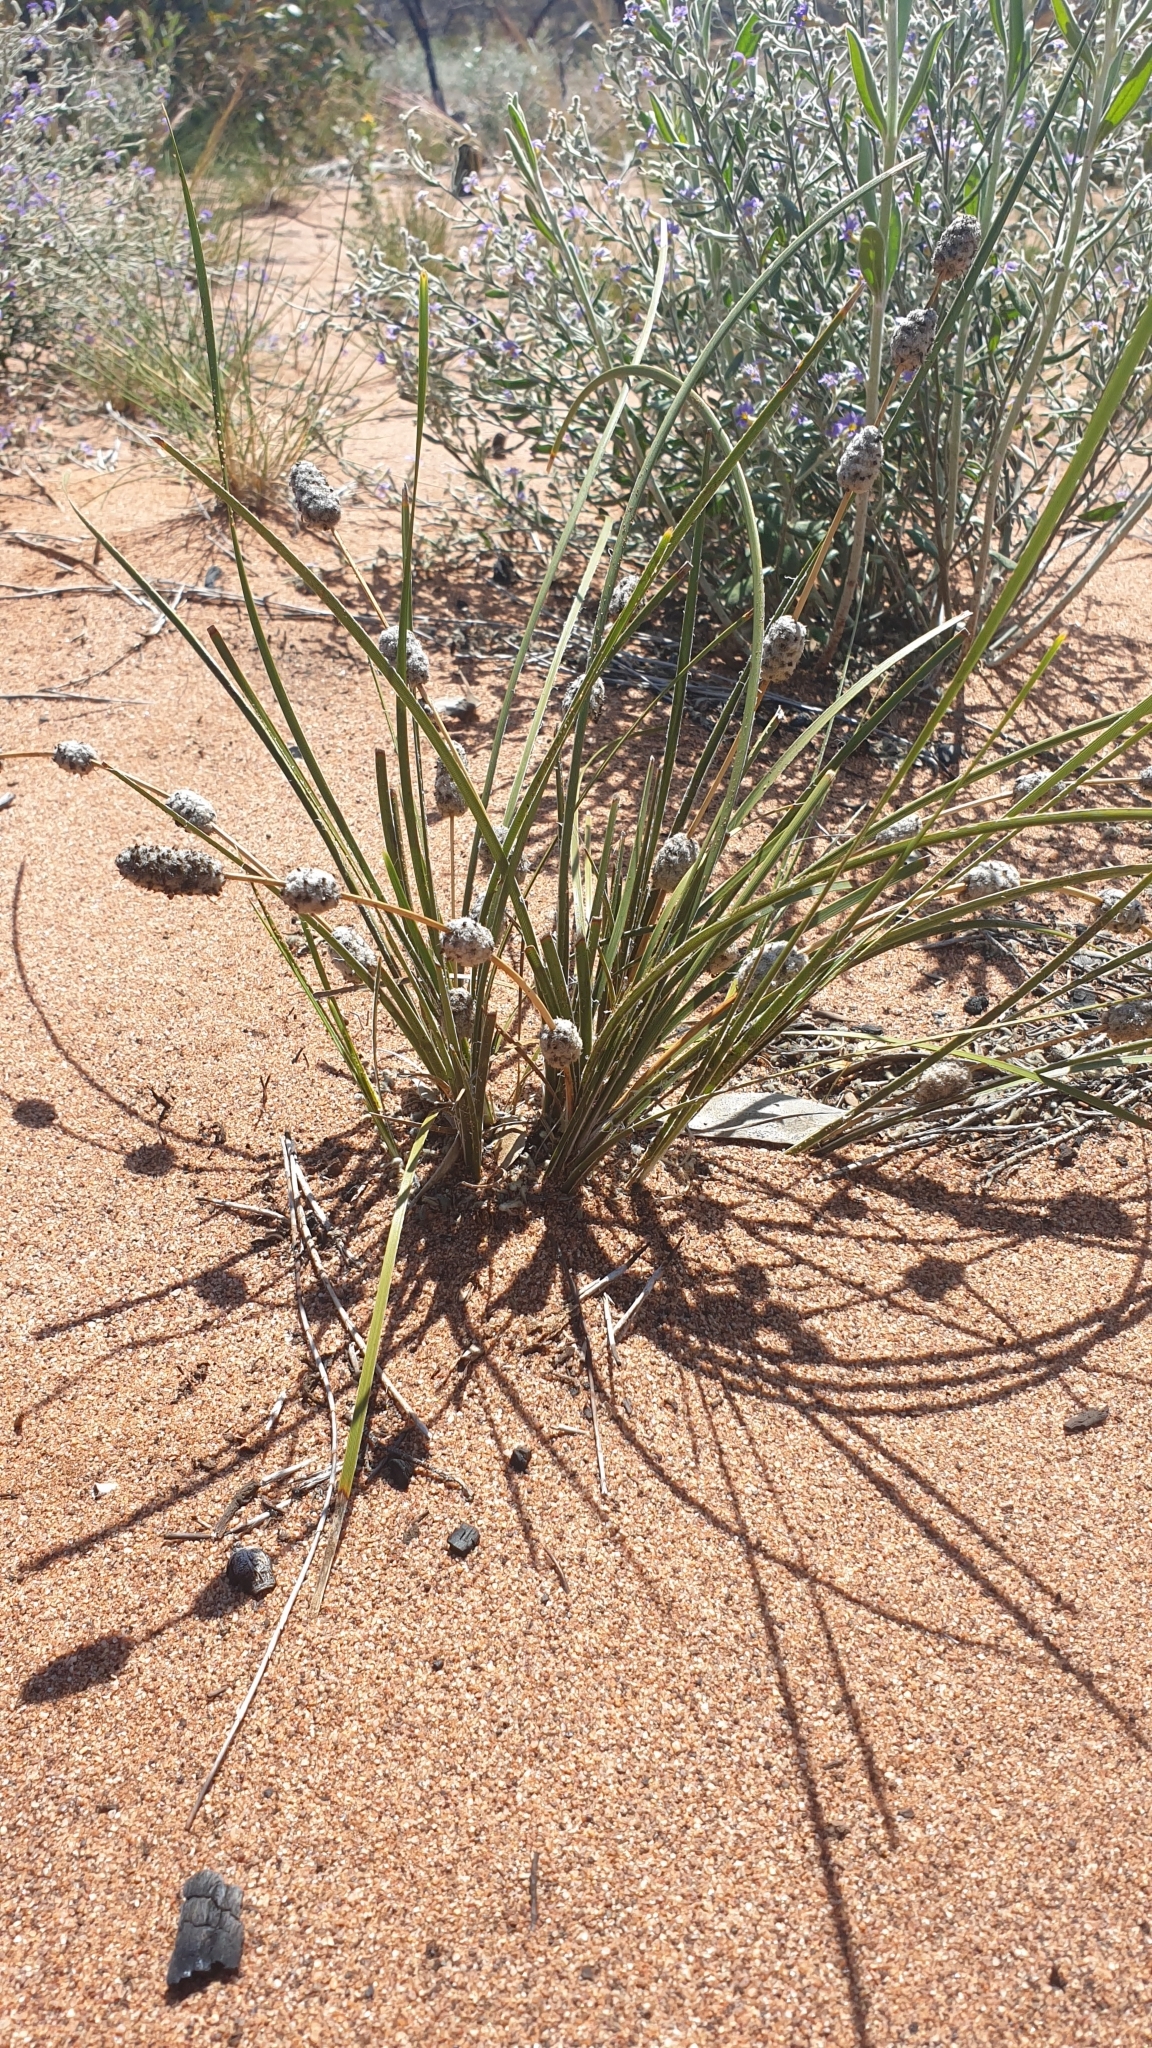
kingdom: Plantae
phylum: Tracheophyta
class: Liliopsida
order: Asparagales
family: Asparagaceae
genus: Lomandra
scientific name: Lomandra leucocephala
